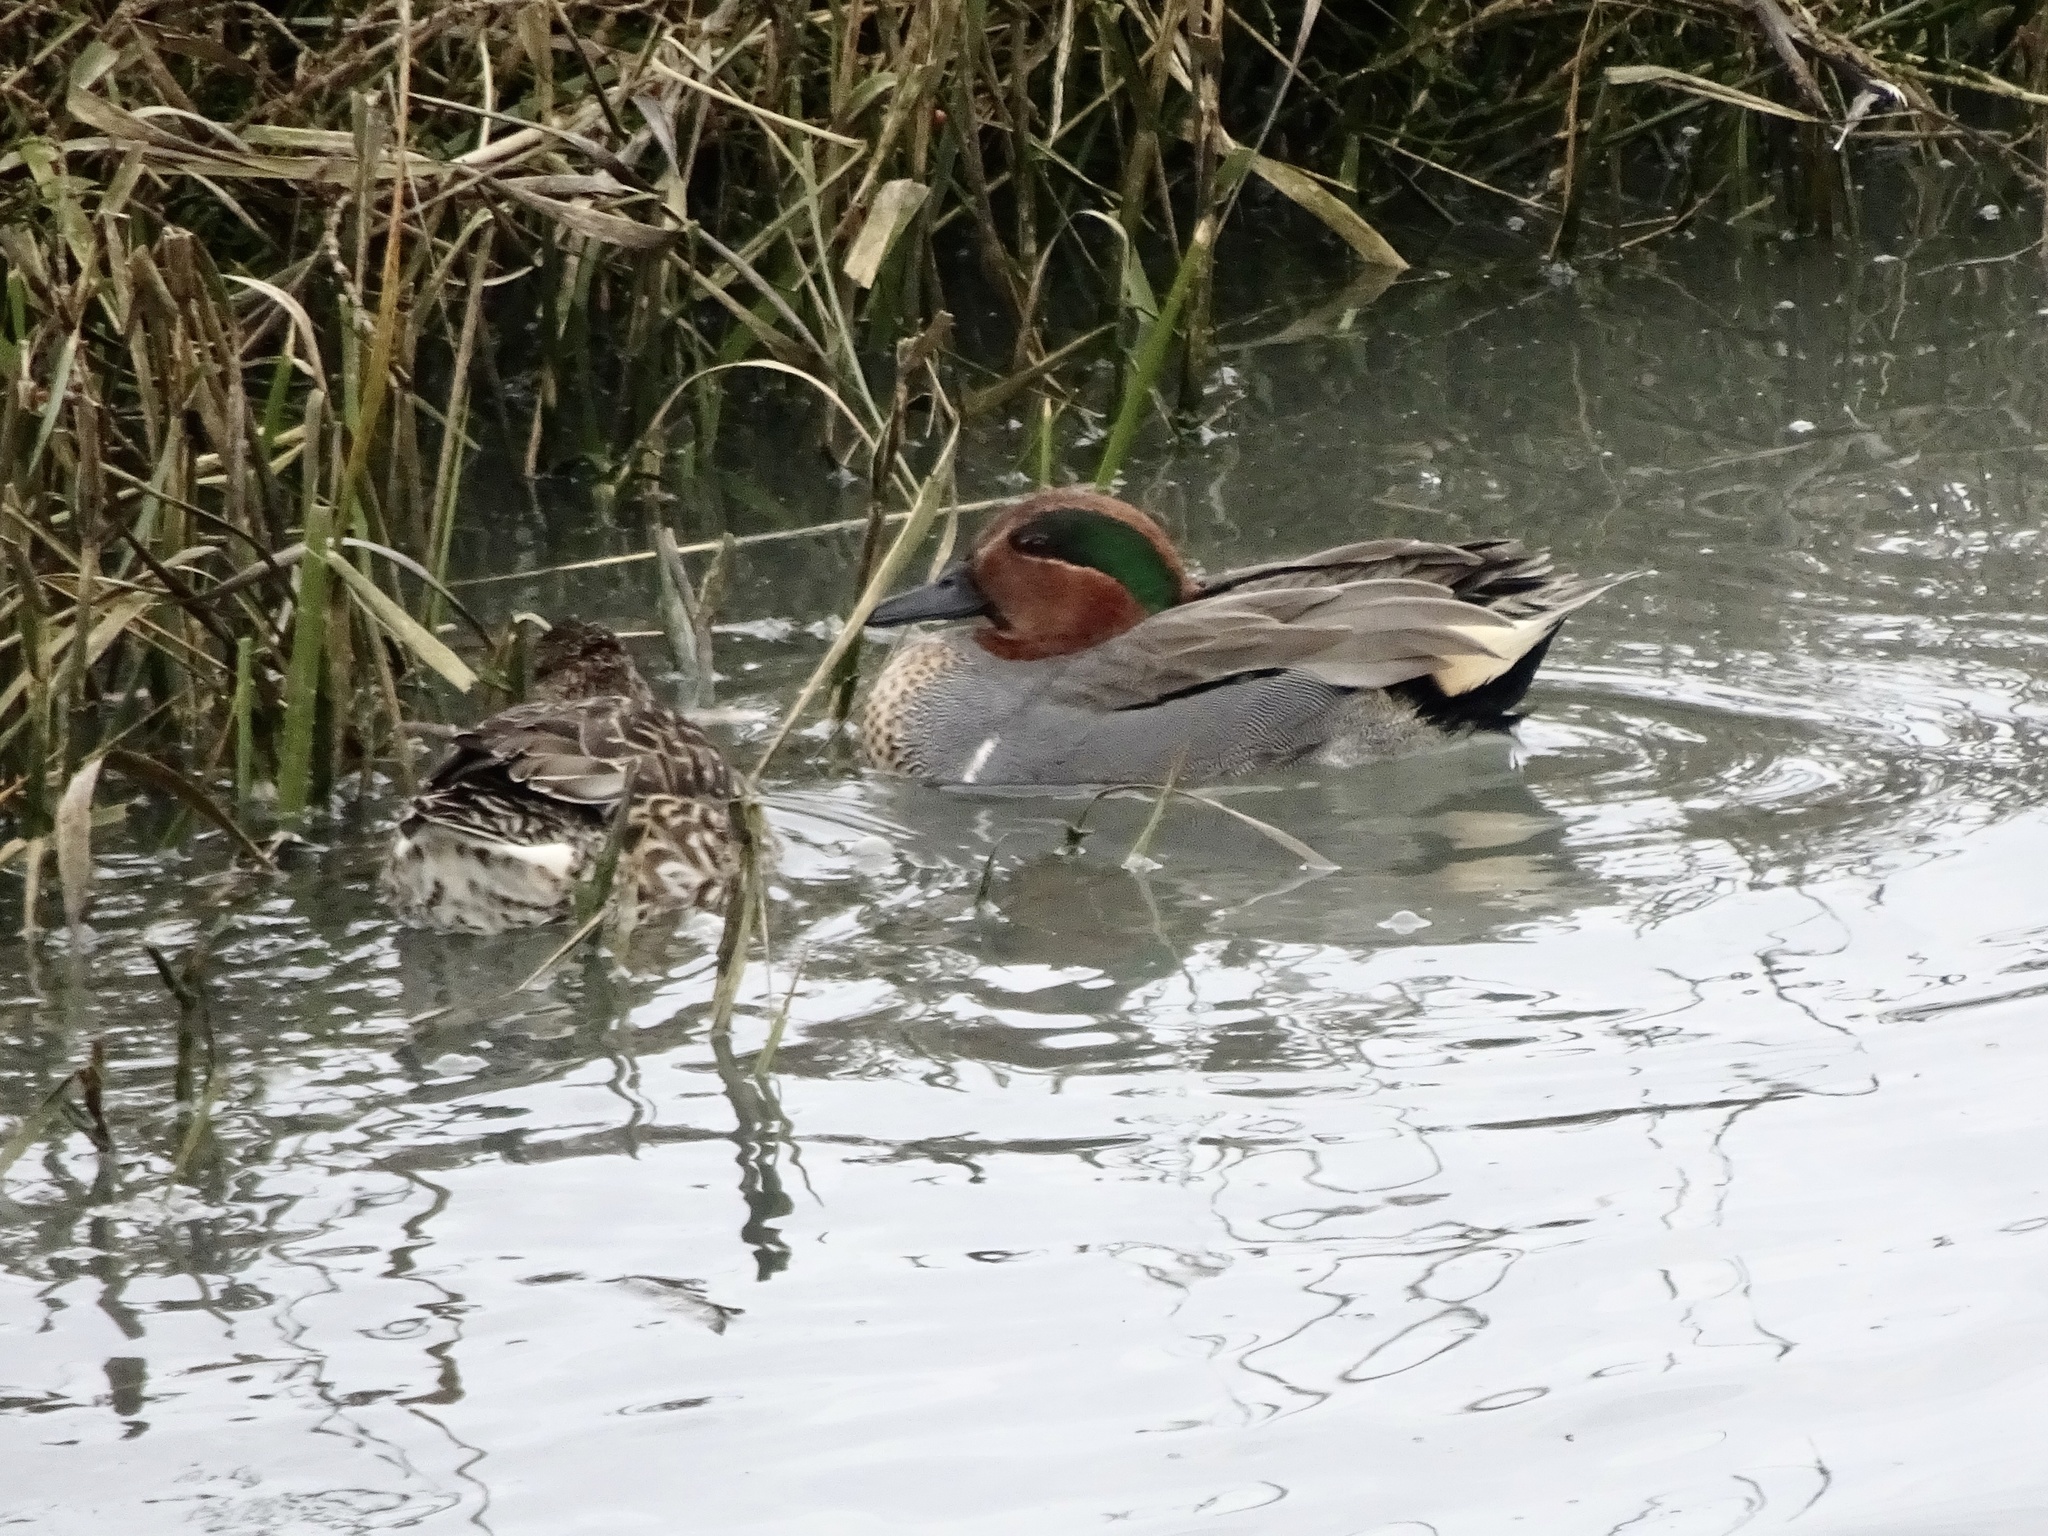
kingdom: Animalia
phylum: Chordata
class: Aves
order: Anseriformes
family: Anatidae
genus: Anas
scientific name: Anas crecca
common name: Eurasian teal
